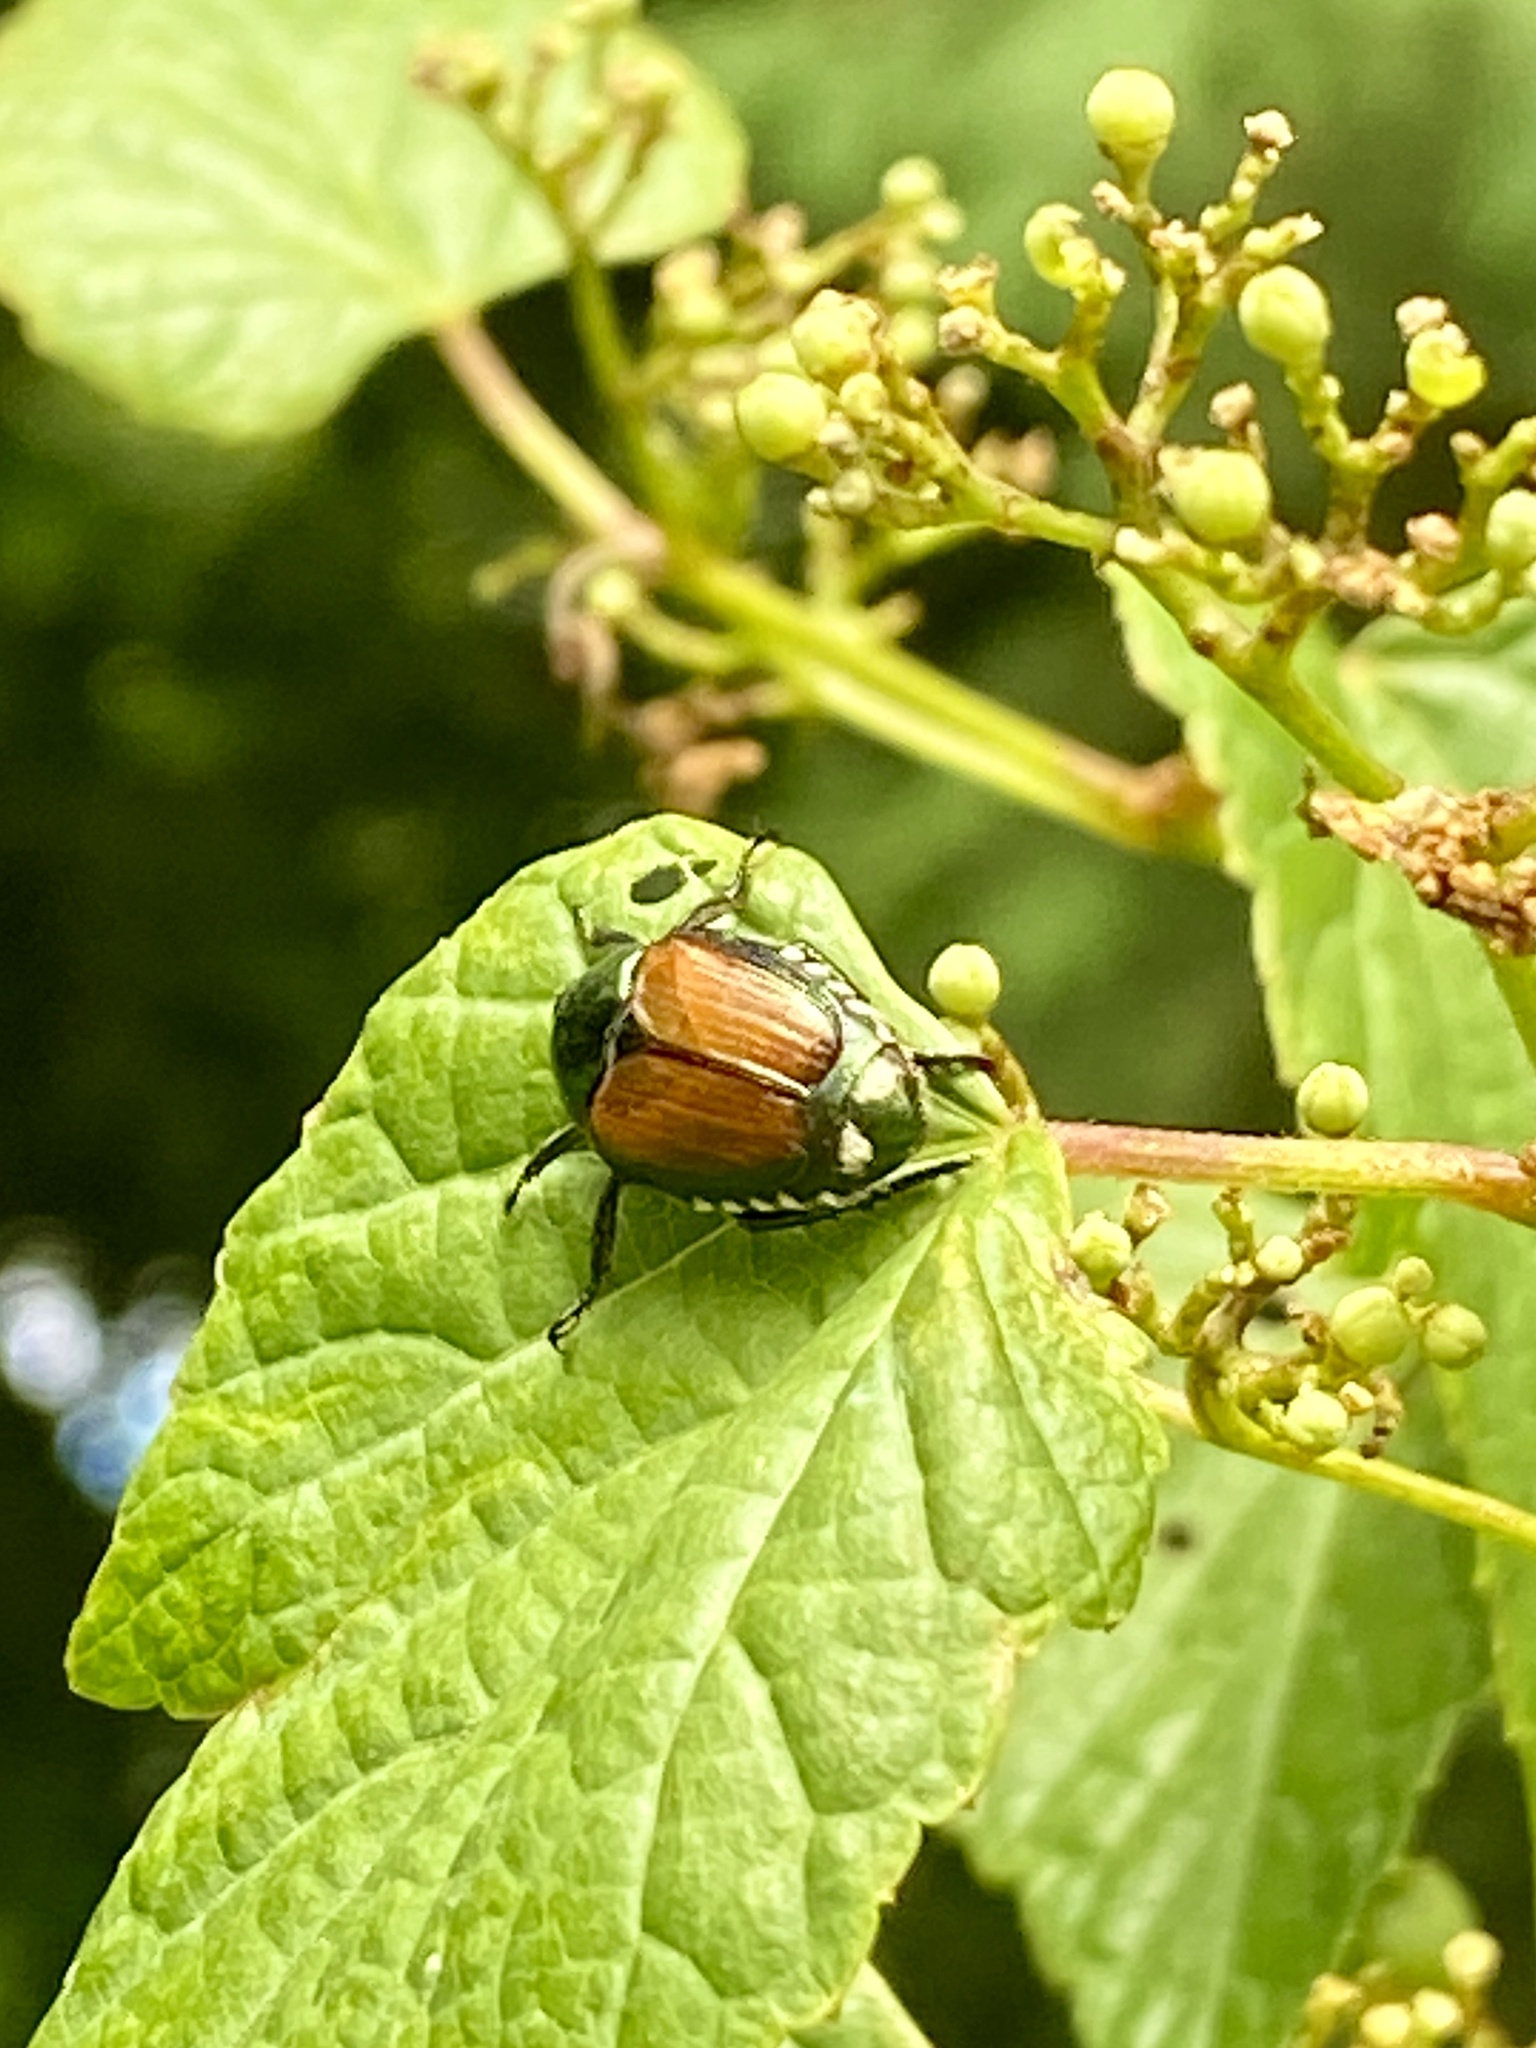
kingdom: Animalia
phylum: Arthropoda
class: Insecta
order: Coleoptera
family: Scarabaeidae
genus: Popillia
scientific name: Popillia japonica
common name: Japanese beetle
